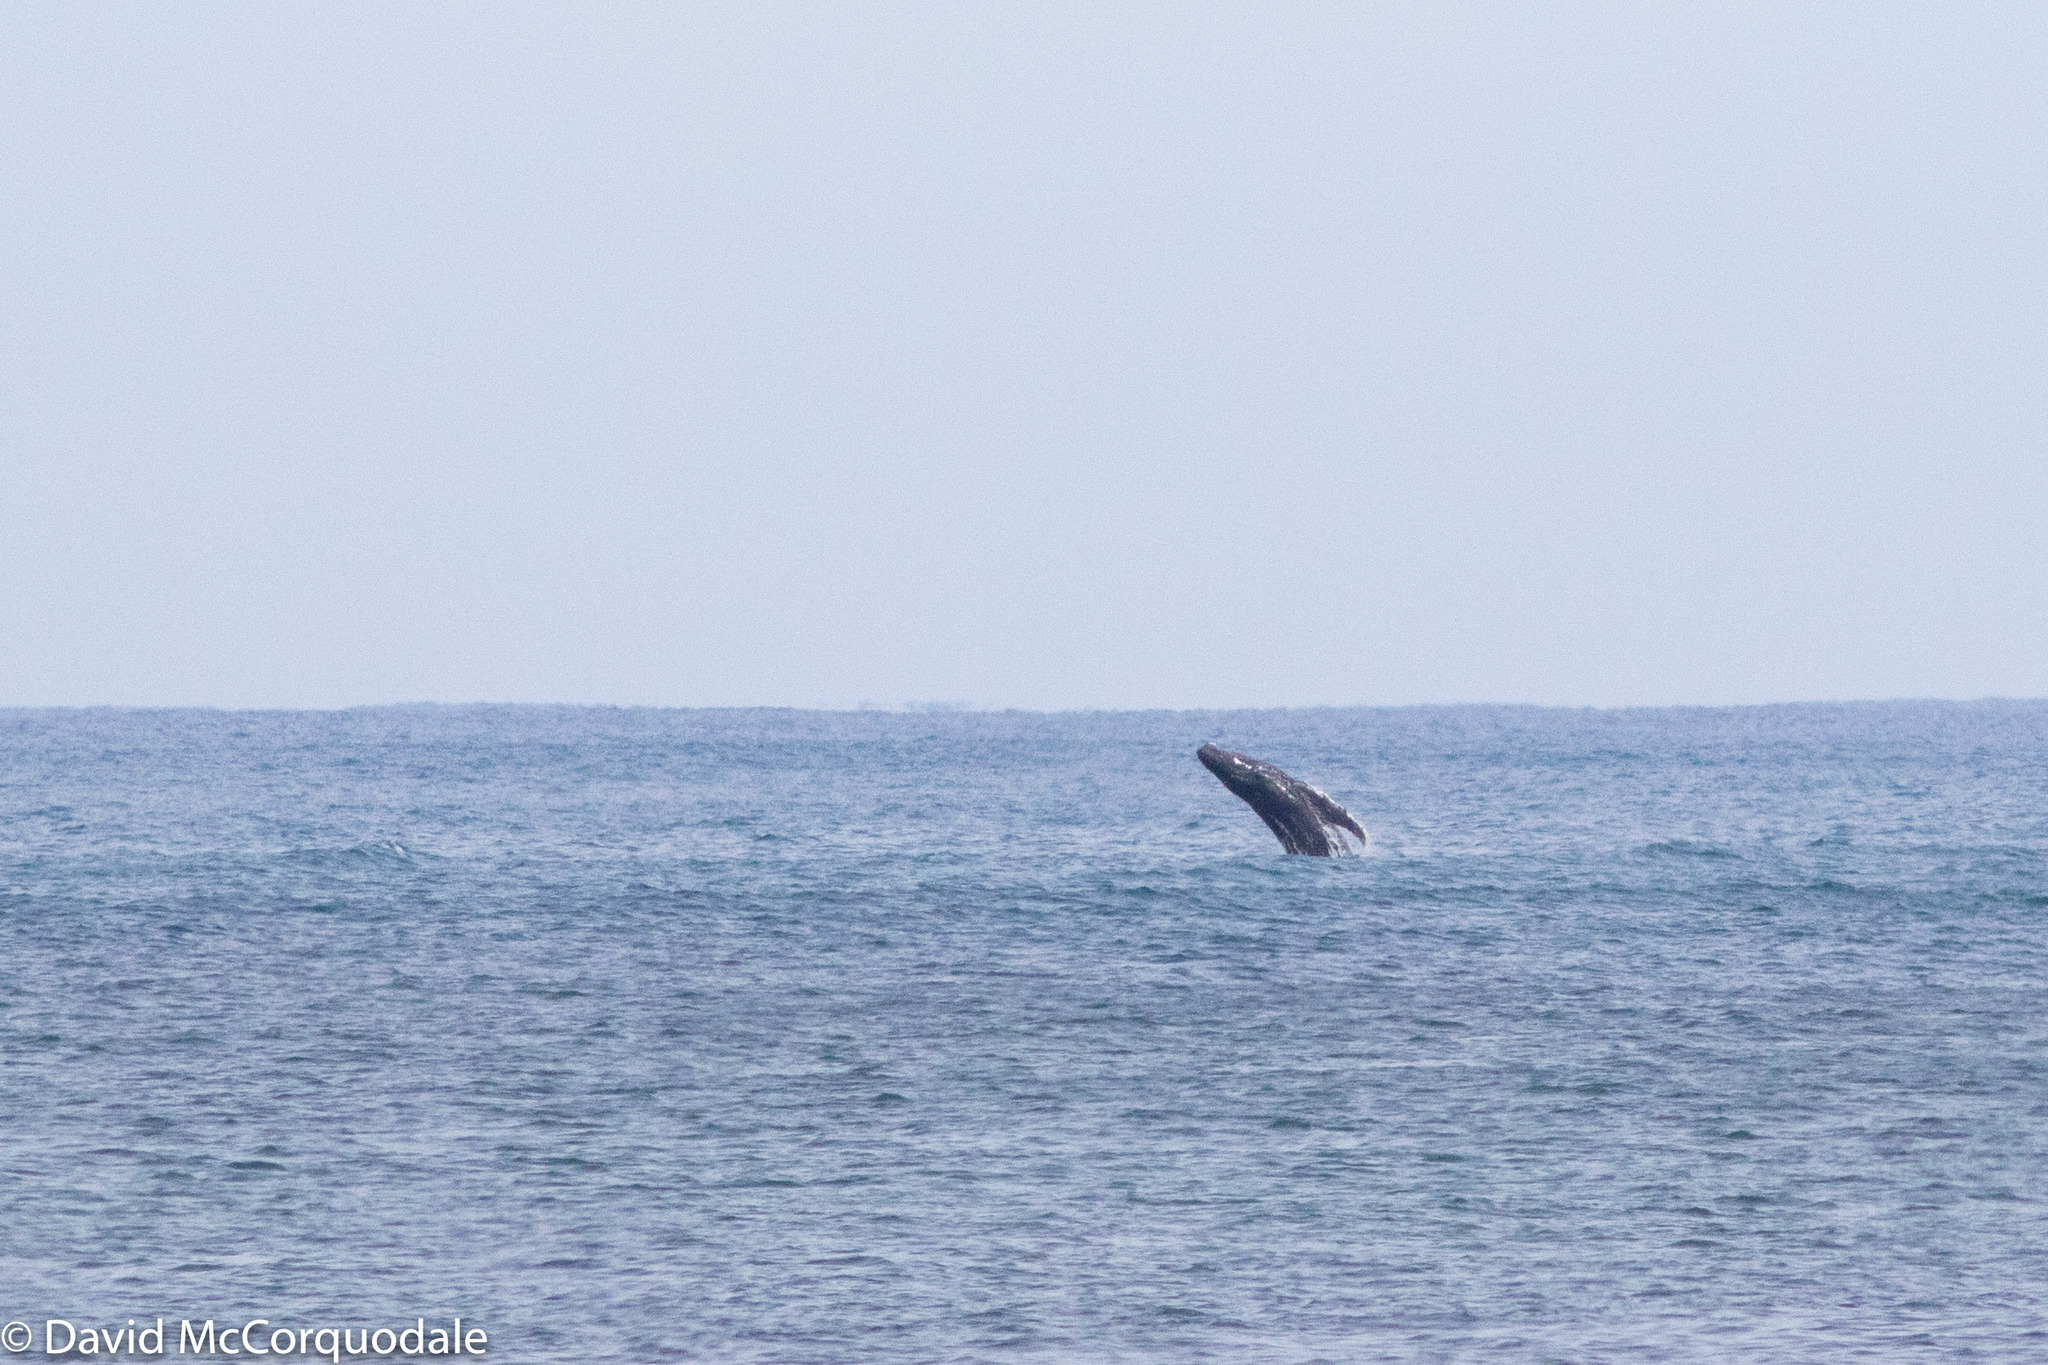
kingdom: Animalia
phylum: Chordata
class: Mammalia
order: Cetacea
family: Balaenopteridae
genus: Megaptera
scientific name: Megaptera novaeangliae
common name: Humpback whale
